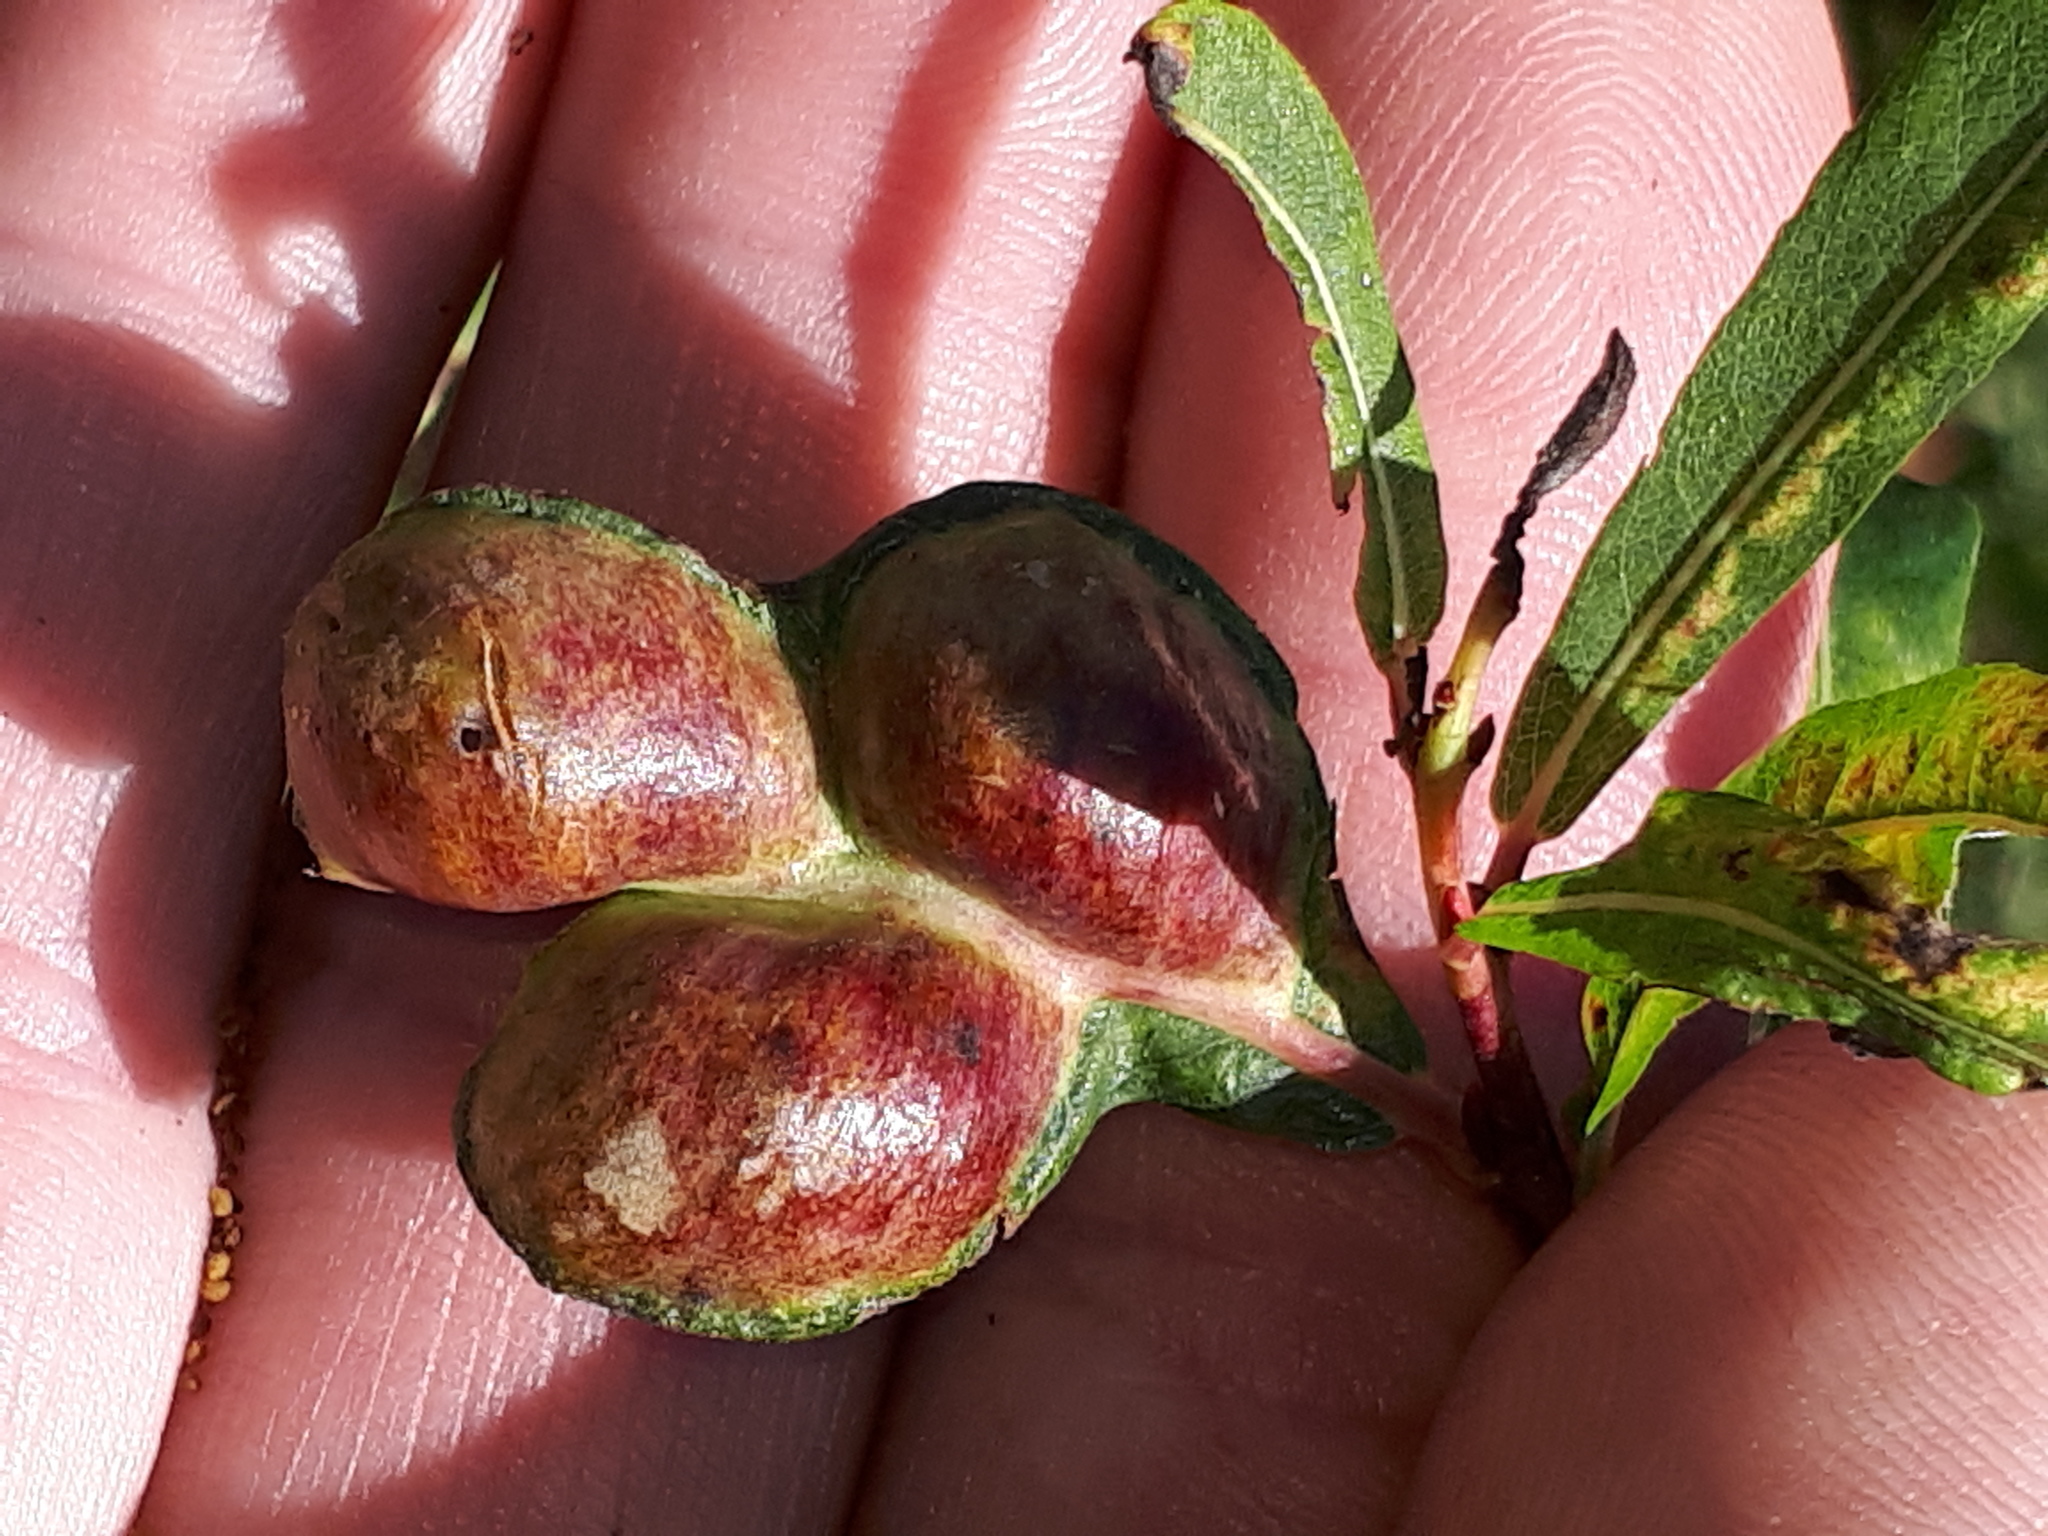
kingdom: Animalia
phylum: Arthropoda
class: Insecta
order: Hymenoptera
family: Tenthredinidae
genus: Pontania
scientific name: Pontania proxima
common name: Common sawfly
